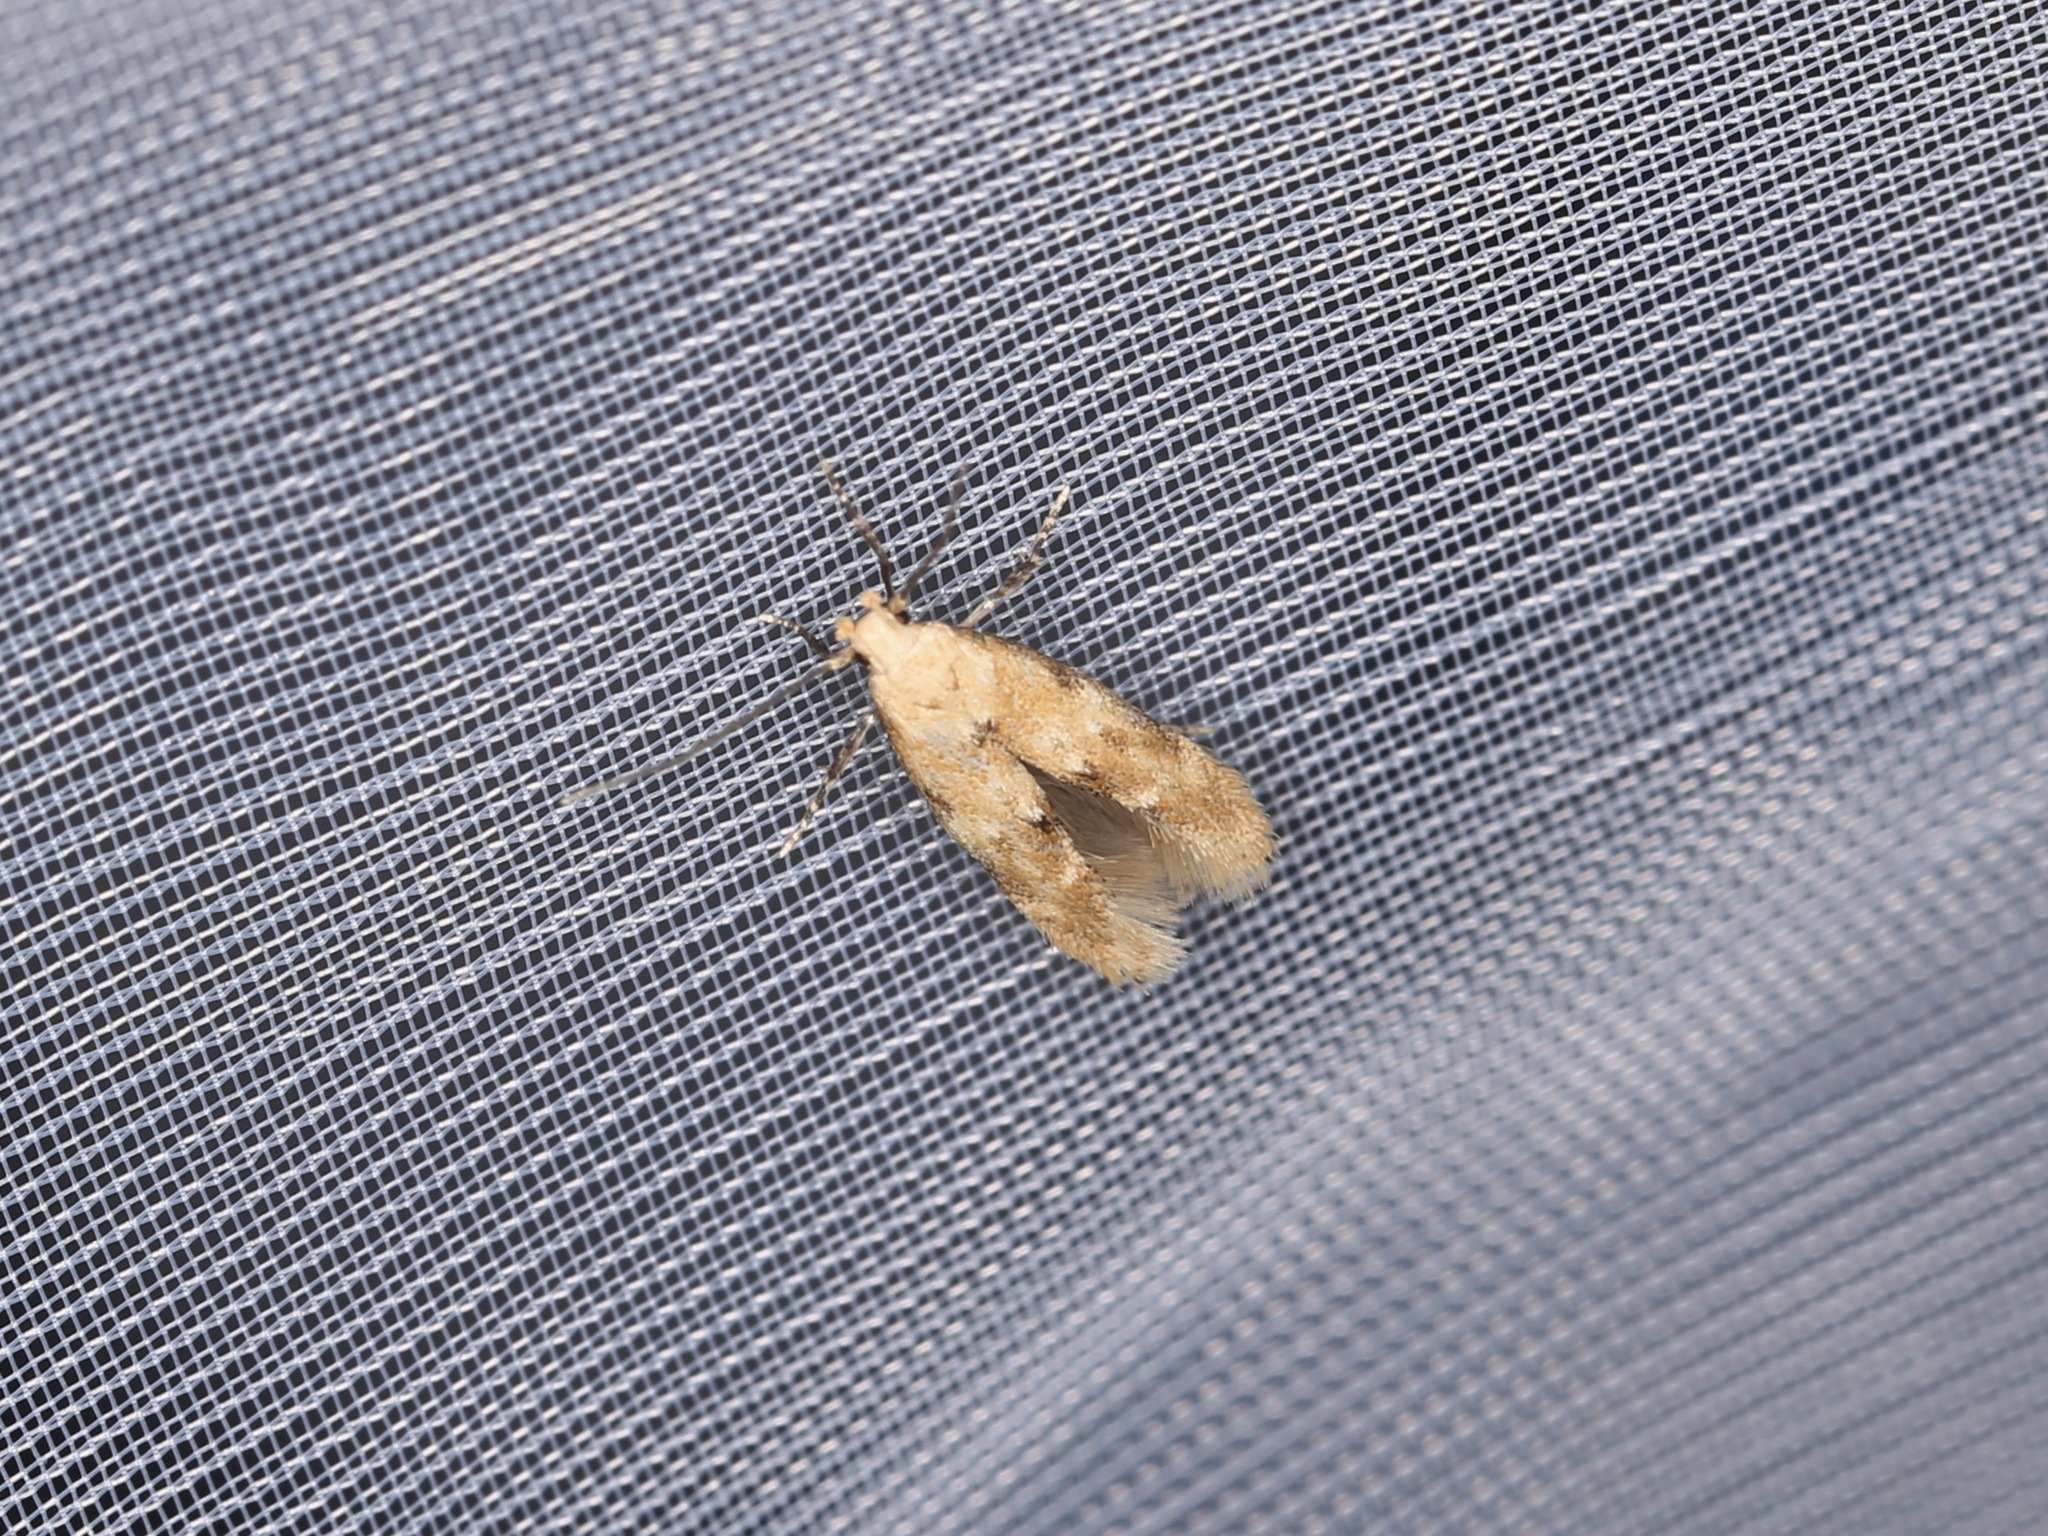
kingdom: Animalia
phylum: Arthropoda
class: Insecta
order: Lepidoptera
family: Momphidae
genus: Mompha
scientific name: Mompha epilobiella
